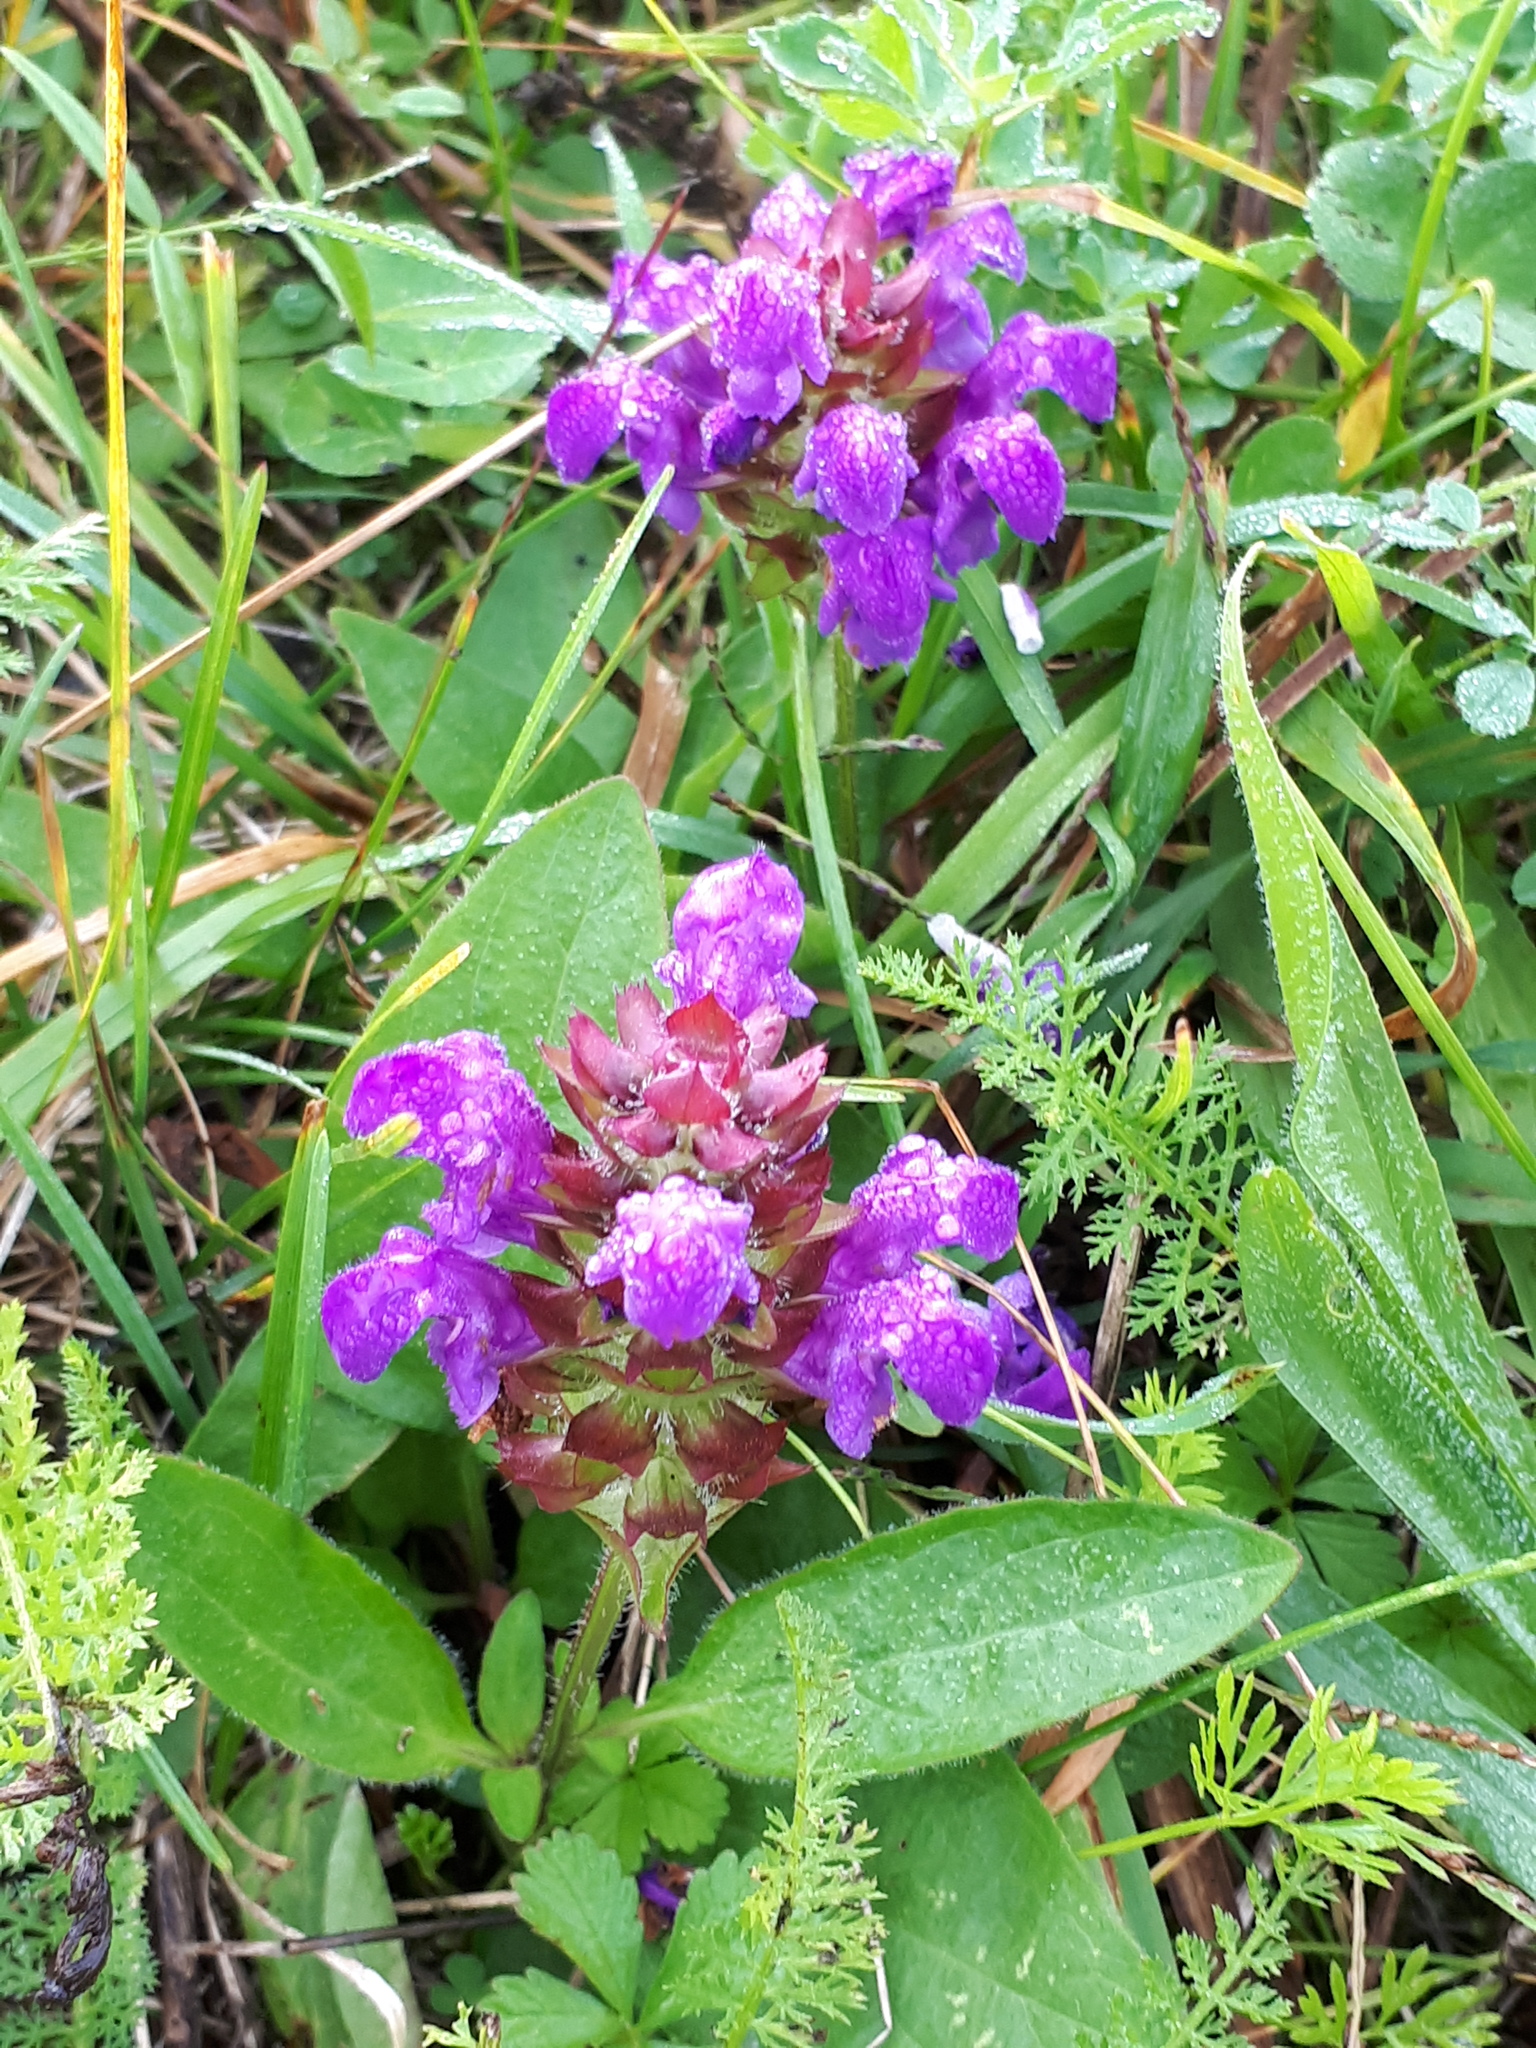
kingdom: Plantae
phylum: Tracheophyta
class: Magnoliopsida
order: Lamiales
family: Lamiaceae
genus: Prunella
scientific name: Prunella grandiflora
